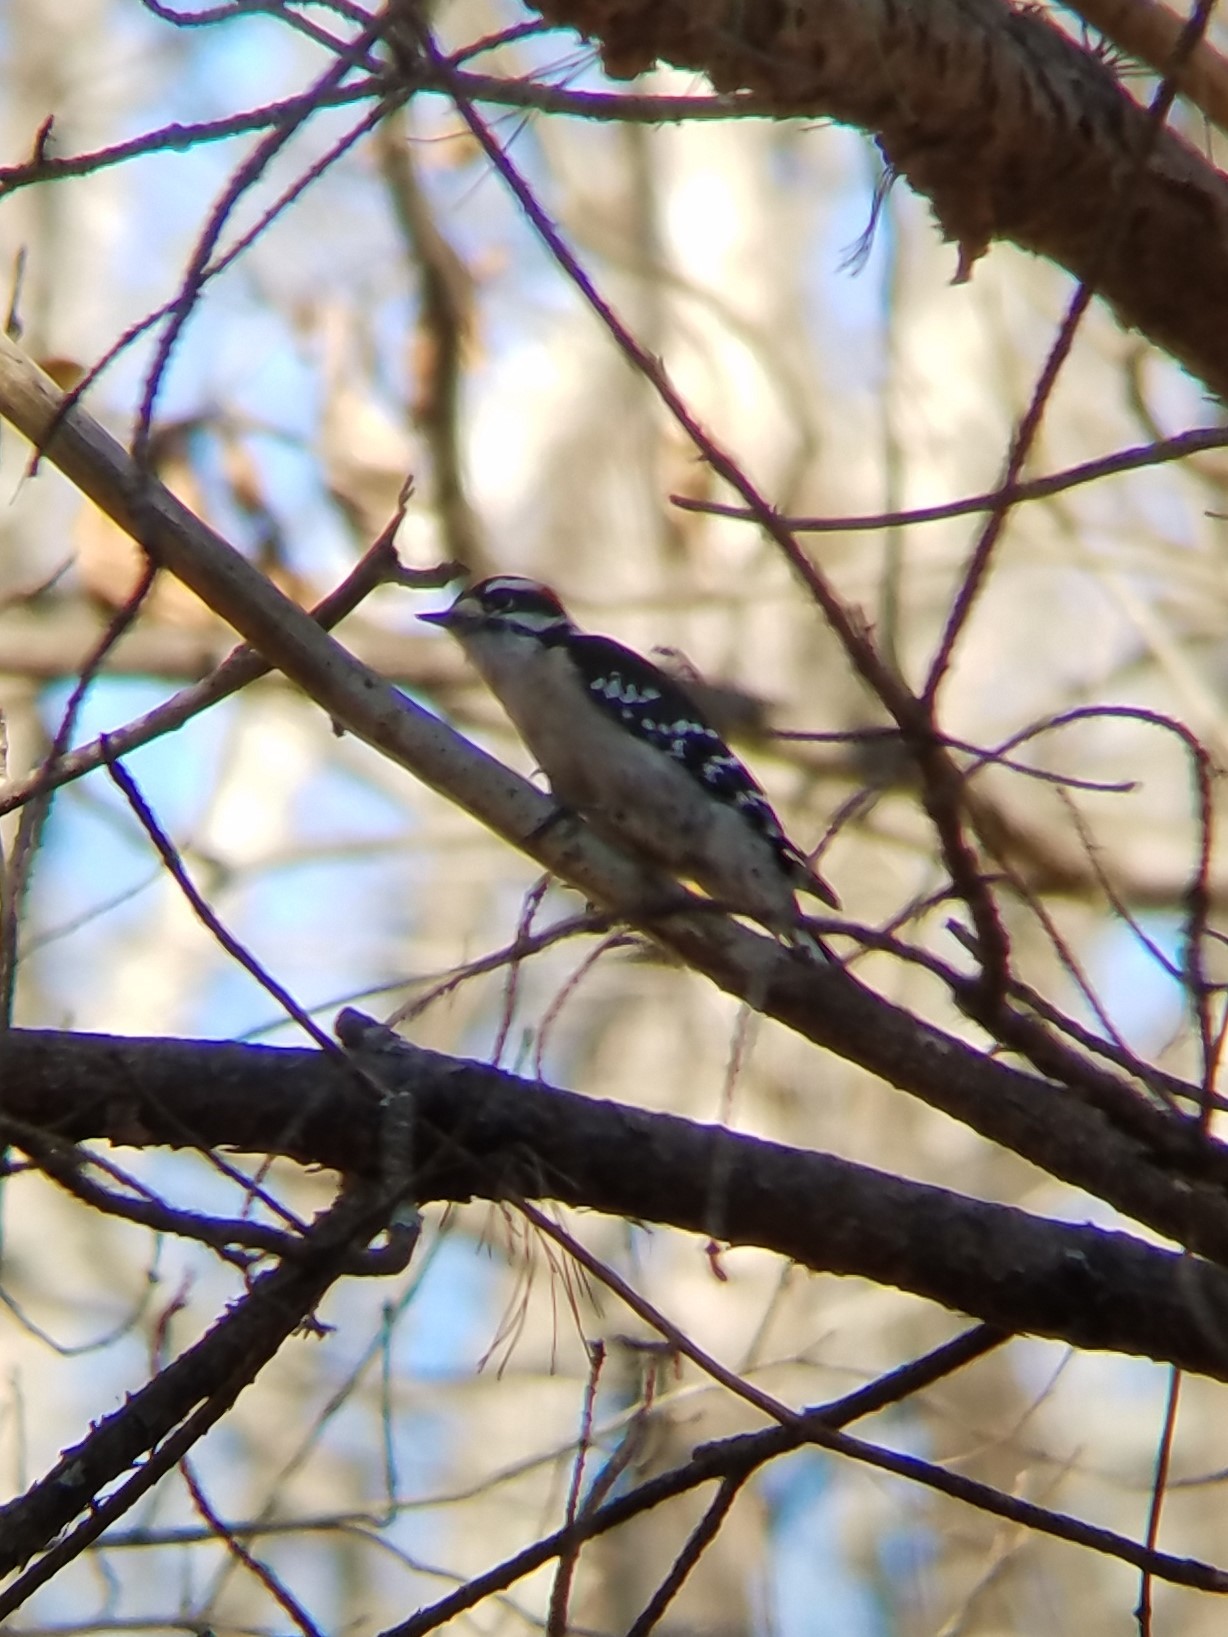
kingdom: Animalia
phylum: Chordata
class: Aves
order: Piciformes
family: Picidae
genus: Dryobates
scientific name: Dryobates pubescens
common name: Downy woodpecker
